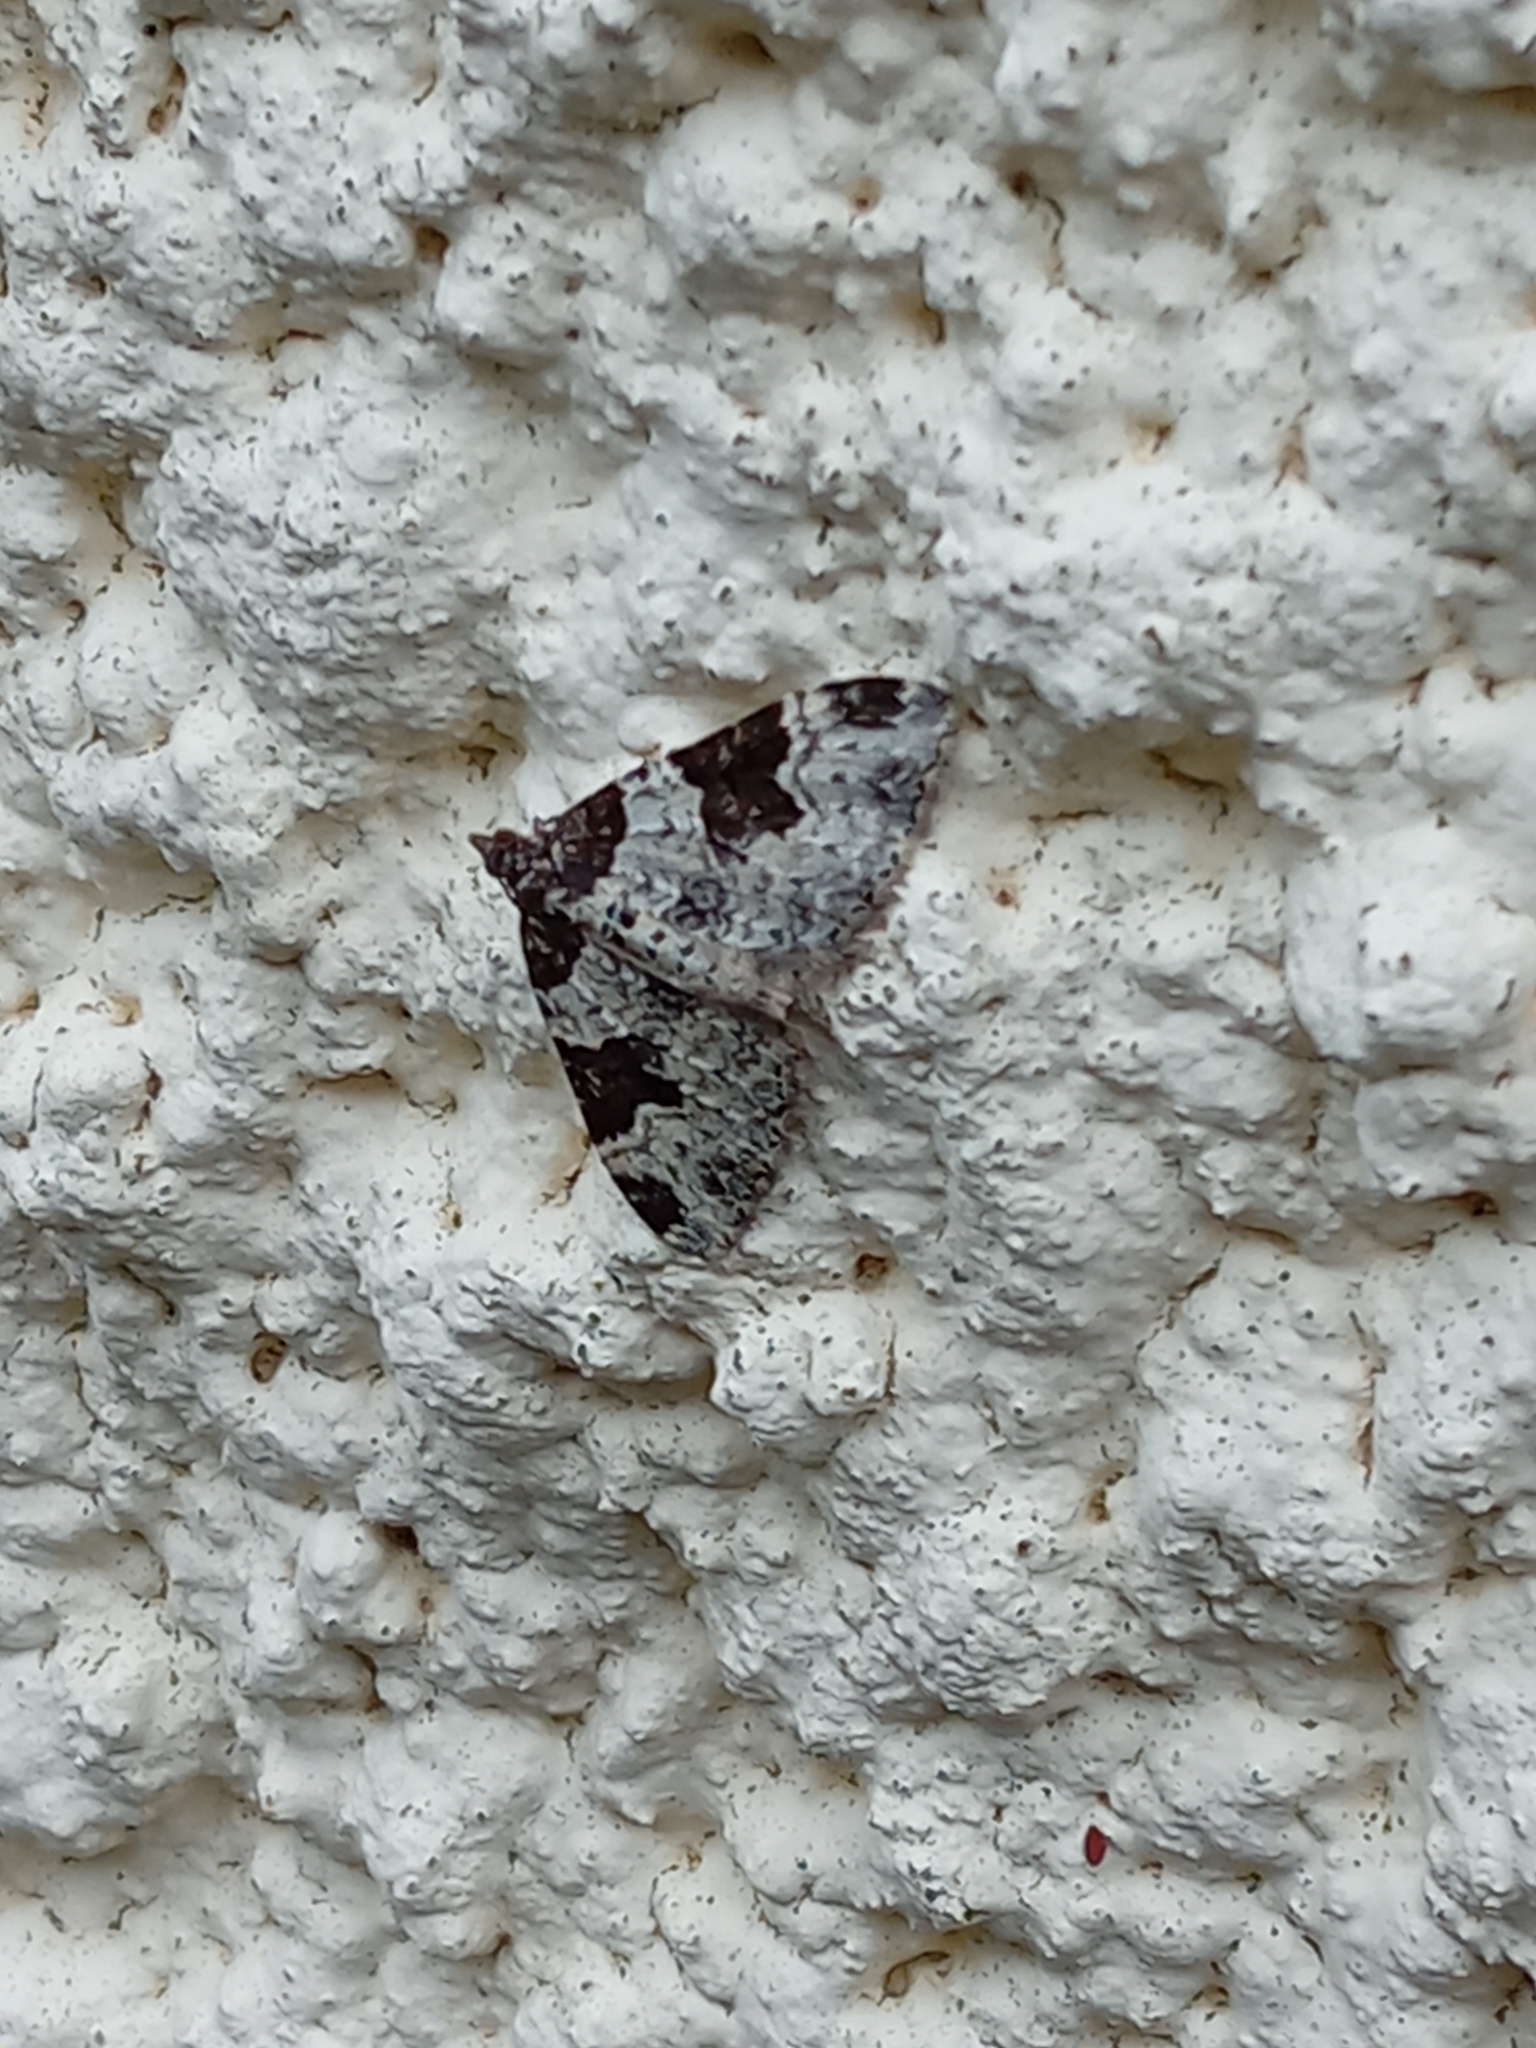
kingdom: Animalia
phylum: Arthropoda
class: Insecta
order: Lepidoptera
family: Geometridae
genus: Xanthorhoe
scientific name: Xanthorhoe fluctuata
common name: Garden carpet
